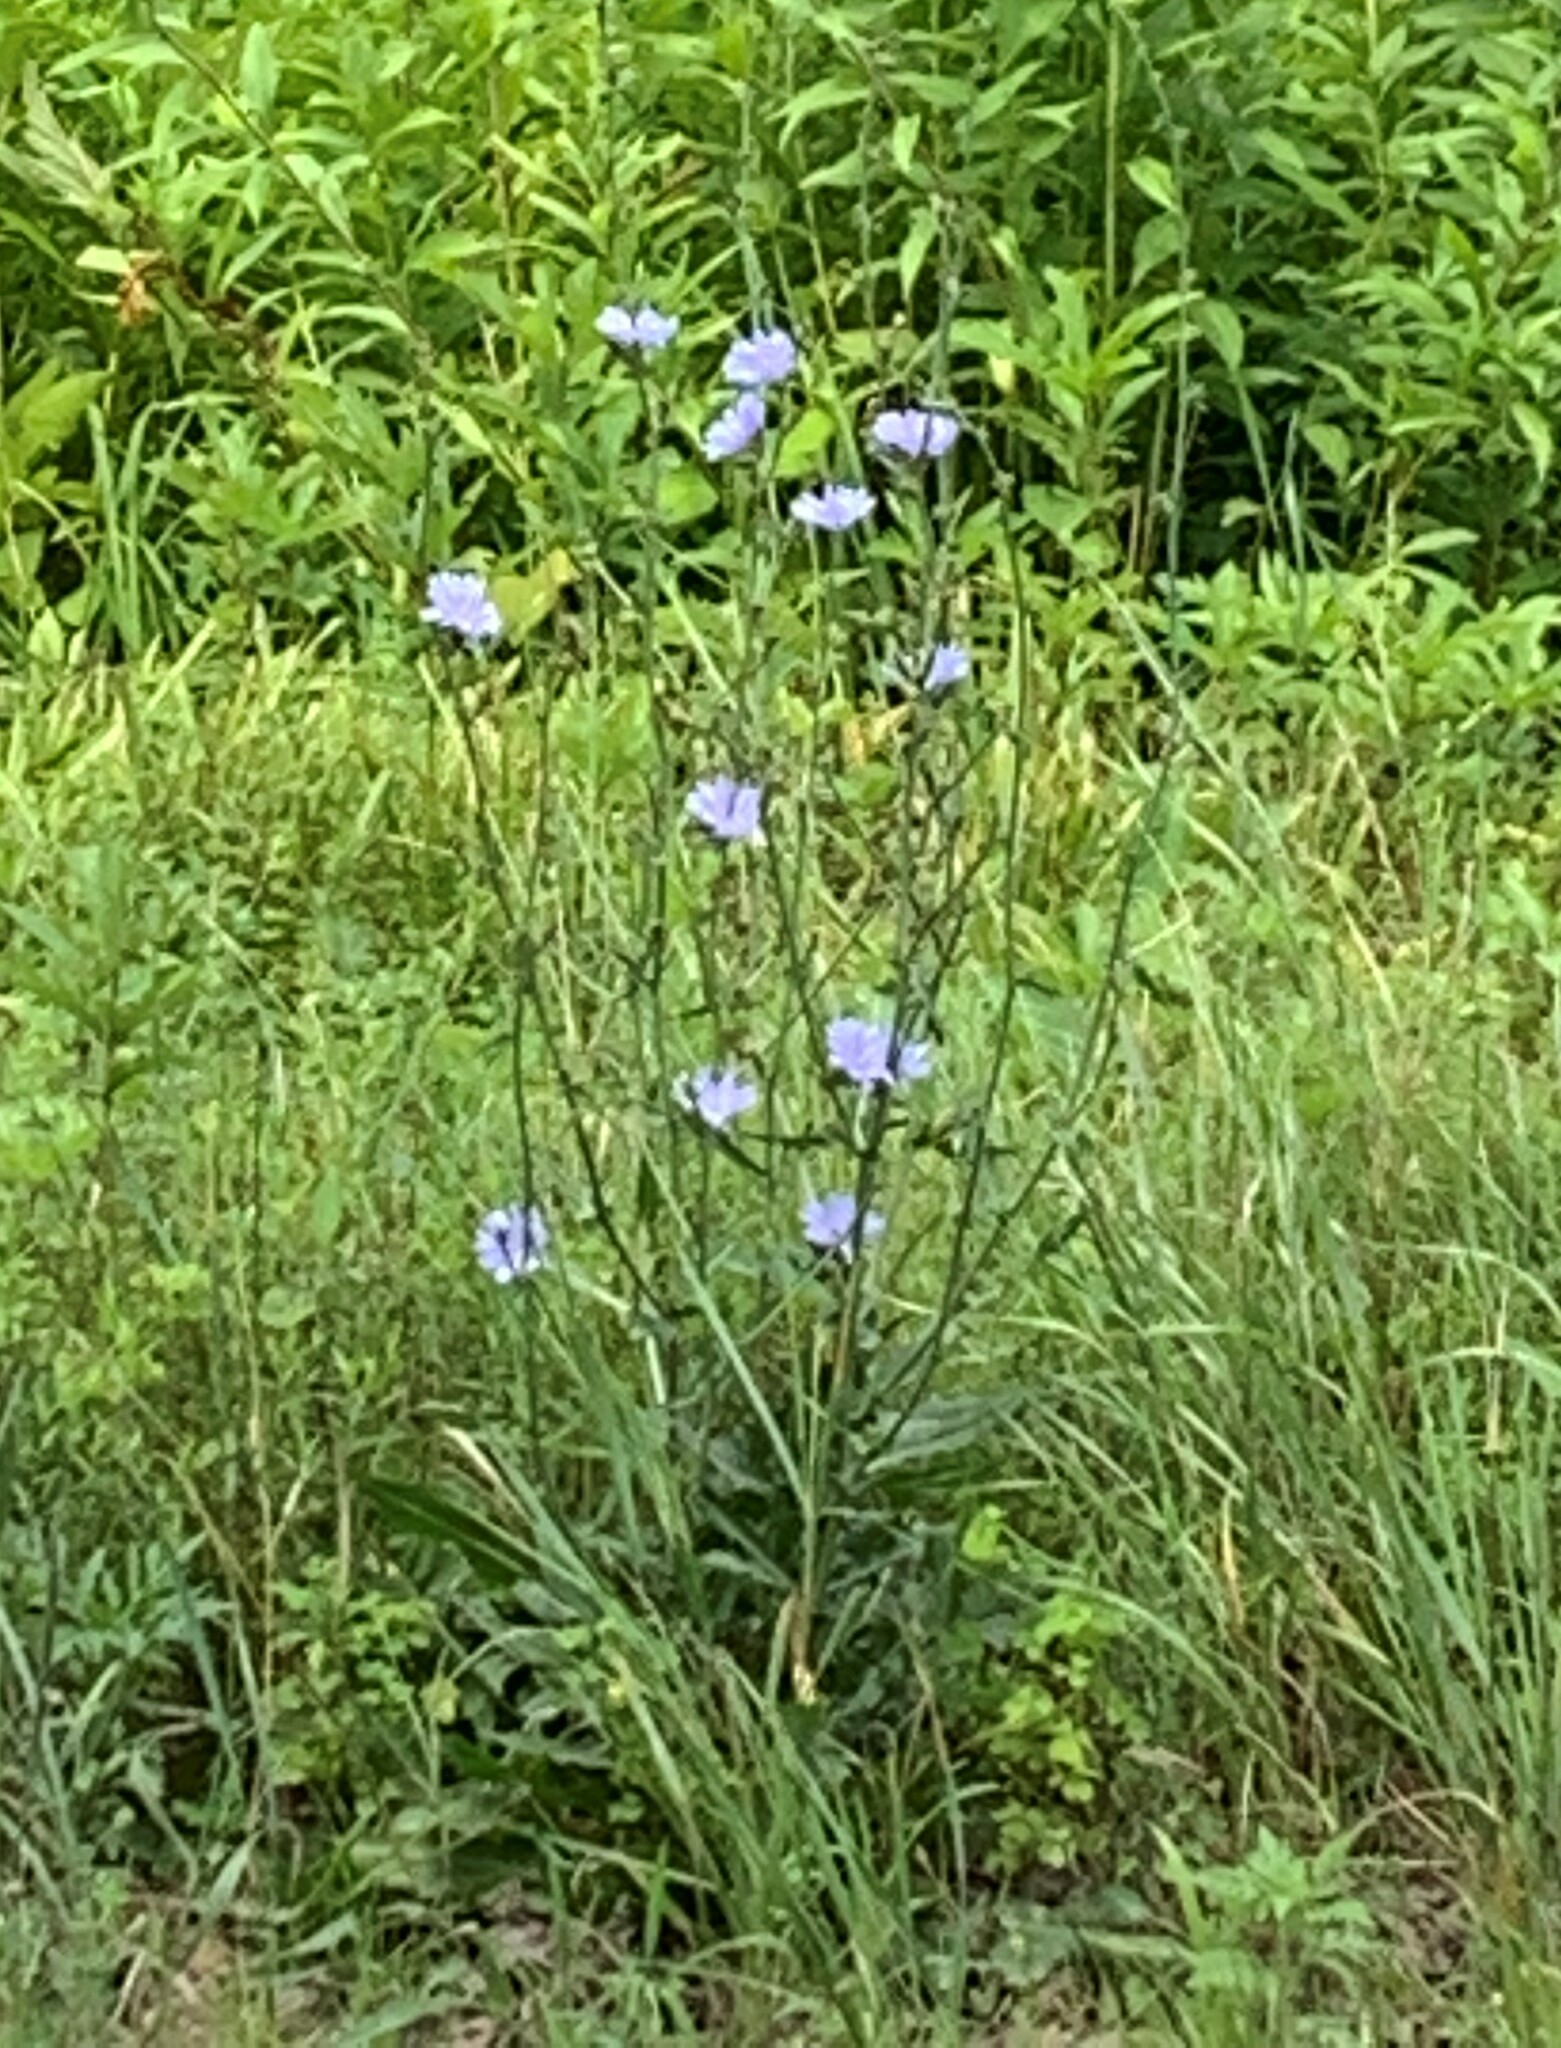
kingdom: Plantae
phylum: Tracheophyta
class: Magnoliopsida
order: Asterales
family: Asteraceae
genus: Cichorium
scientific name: Cichorium intybus
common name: Chicory
